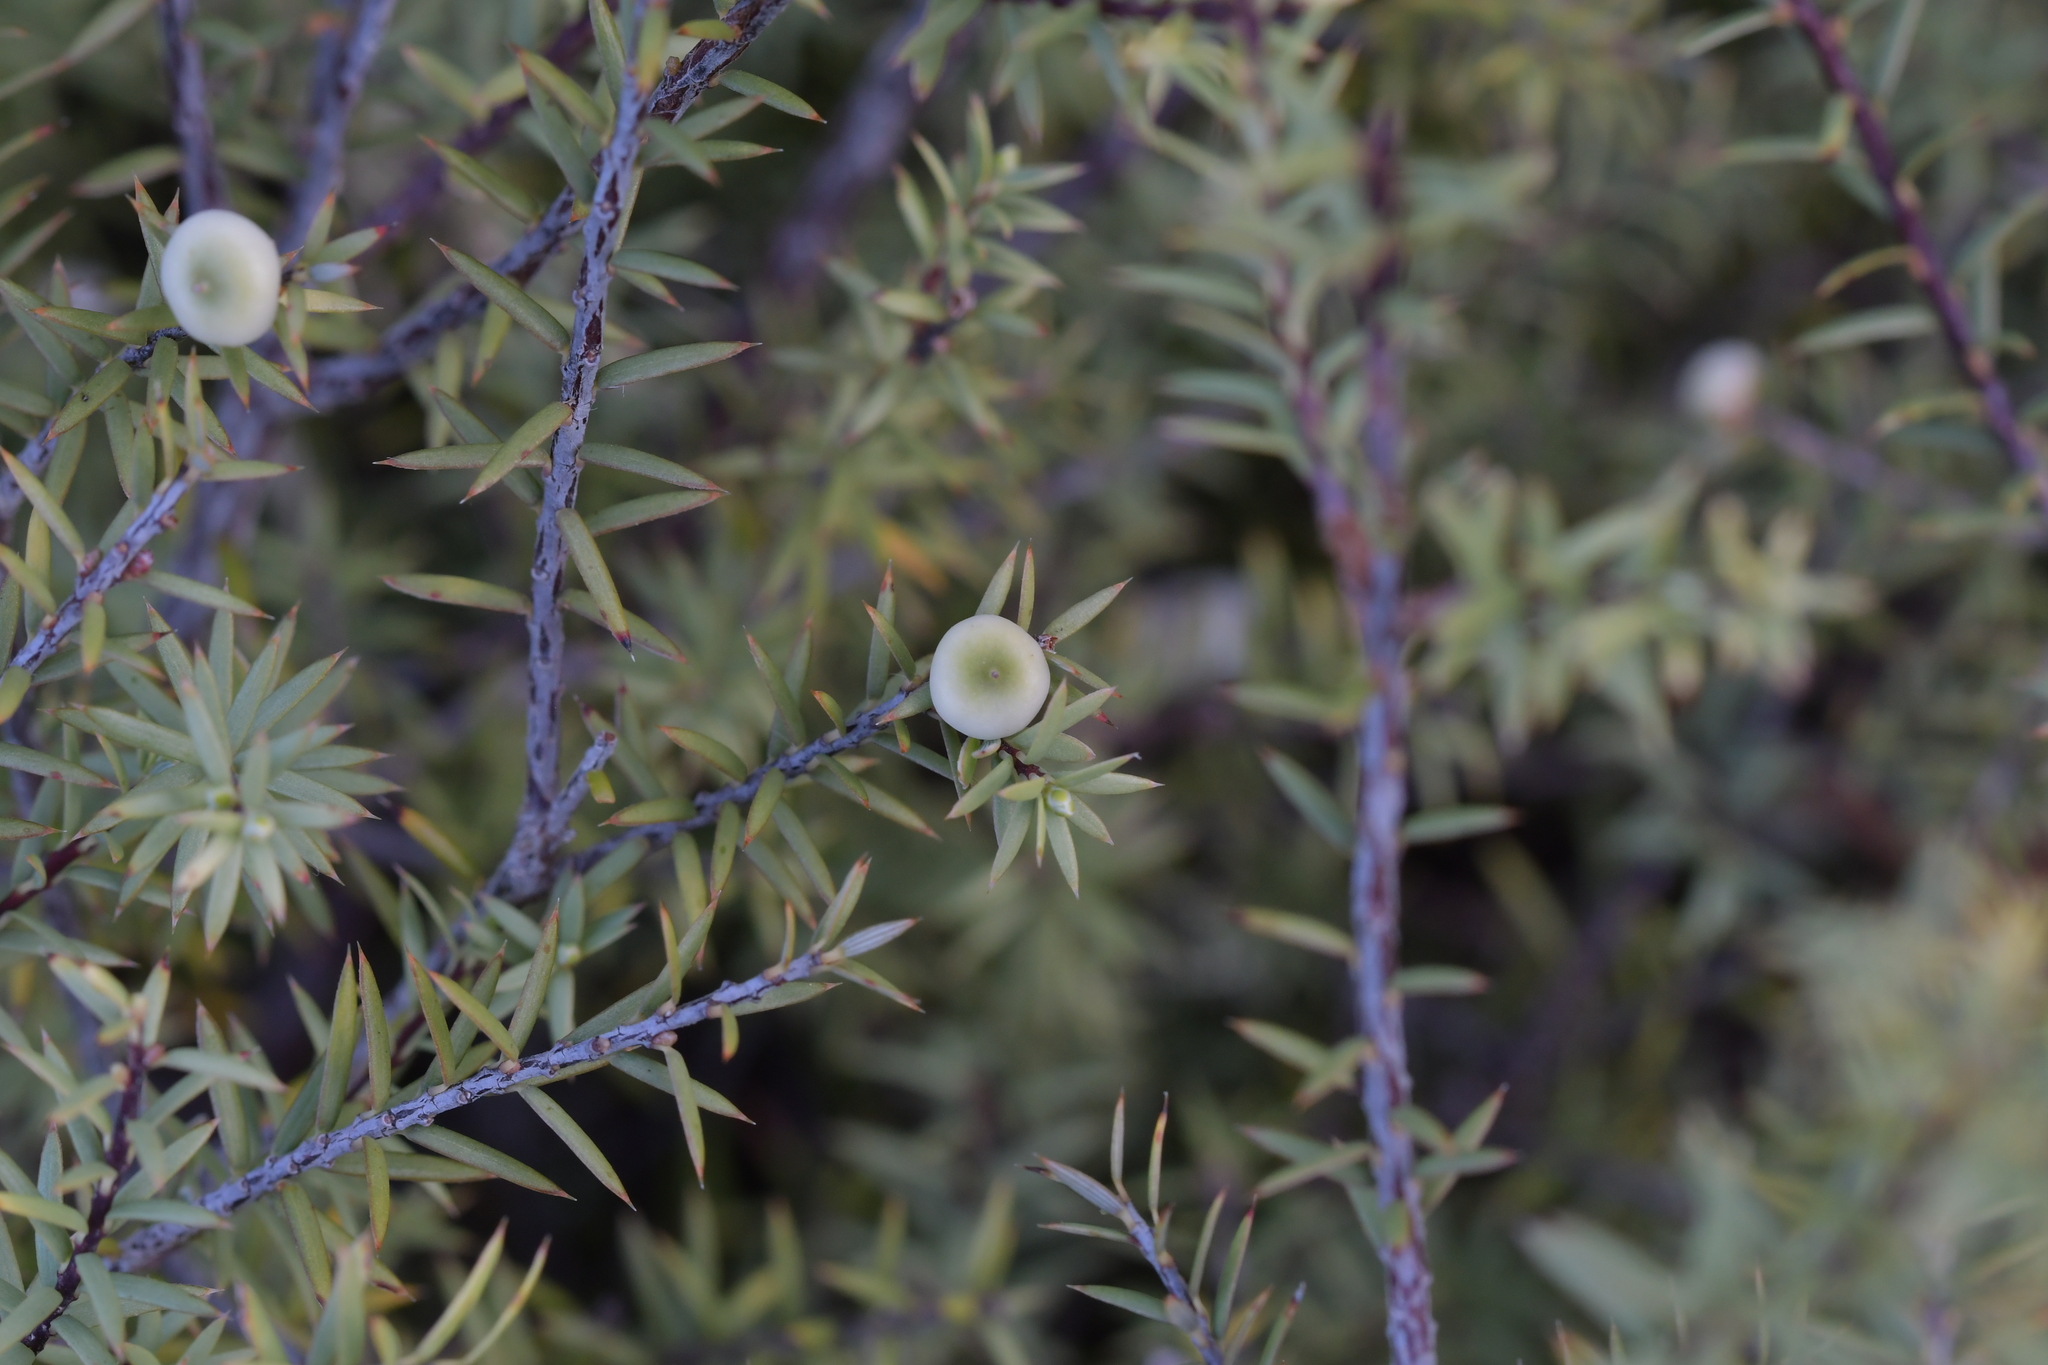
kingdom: Plantae
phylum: Tracheophyta
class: Magnoliopsida
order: Ericales
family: Ericaceae
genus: Leptecophylla
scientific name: Leptecophylla juniperina
